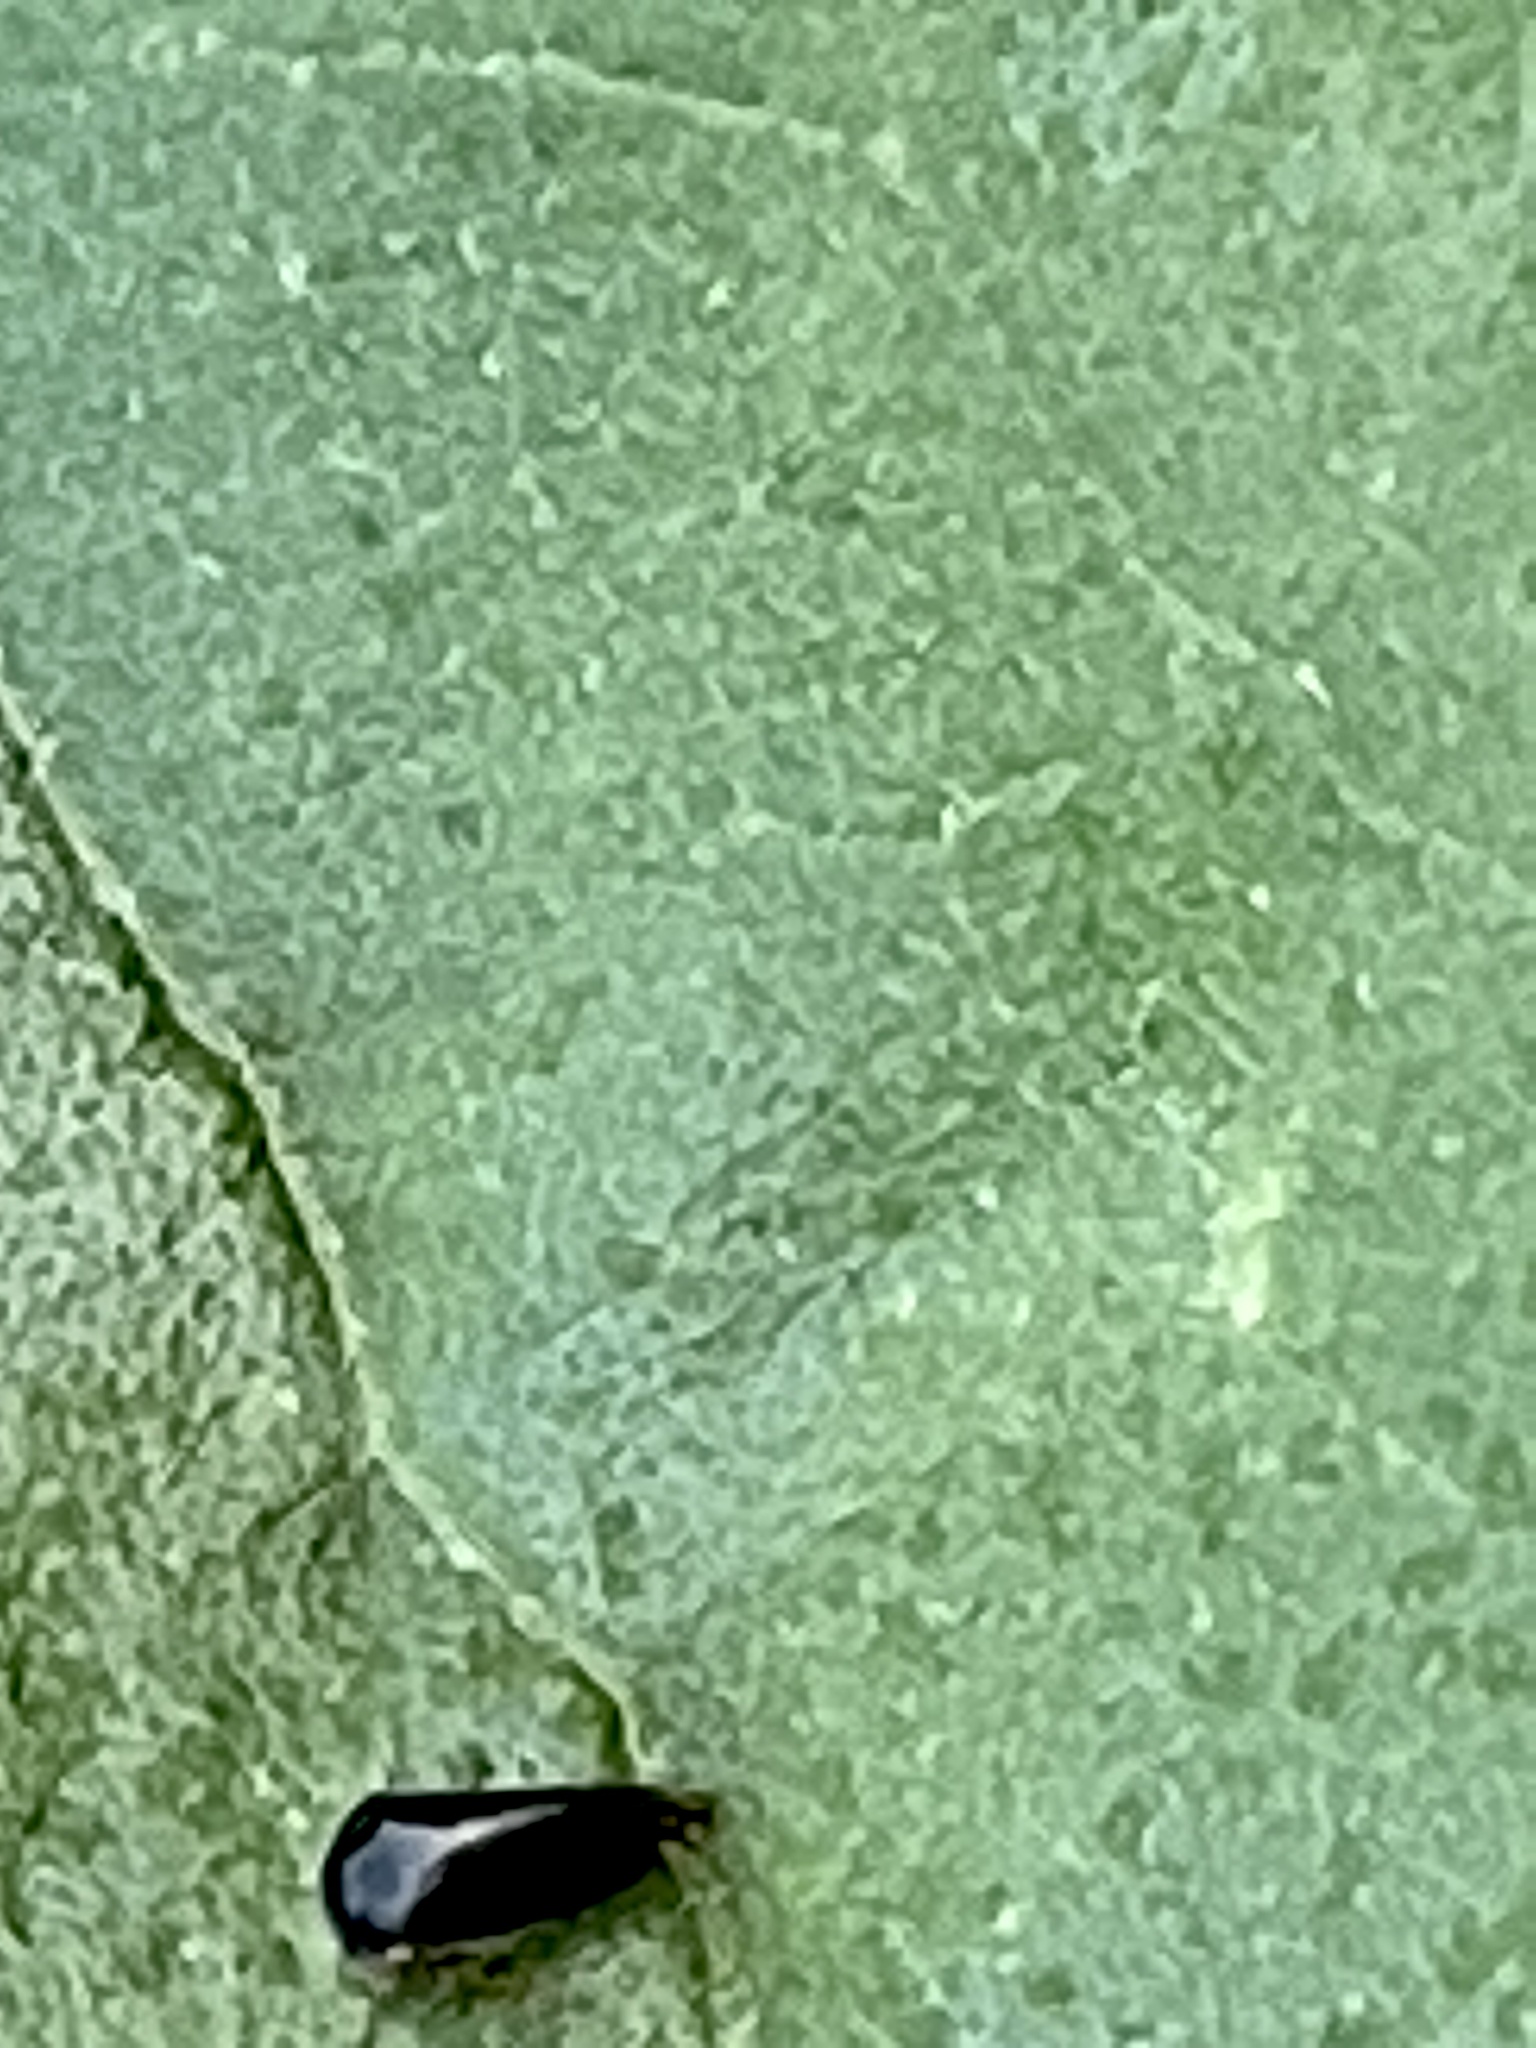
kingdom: Animalia
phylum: Arthropoda
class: Insecta
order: Hemiptera
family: Membracidae
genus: Micrutalis
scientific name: Micrutalis calva
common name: Honeylocust treehopper
